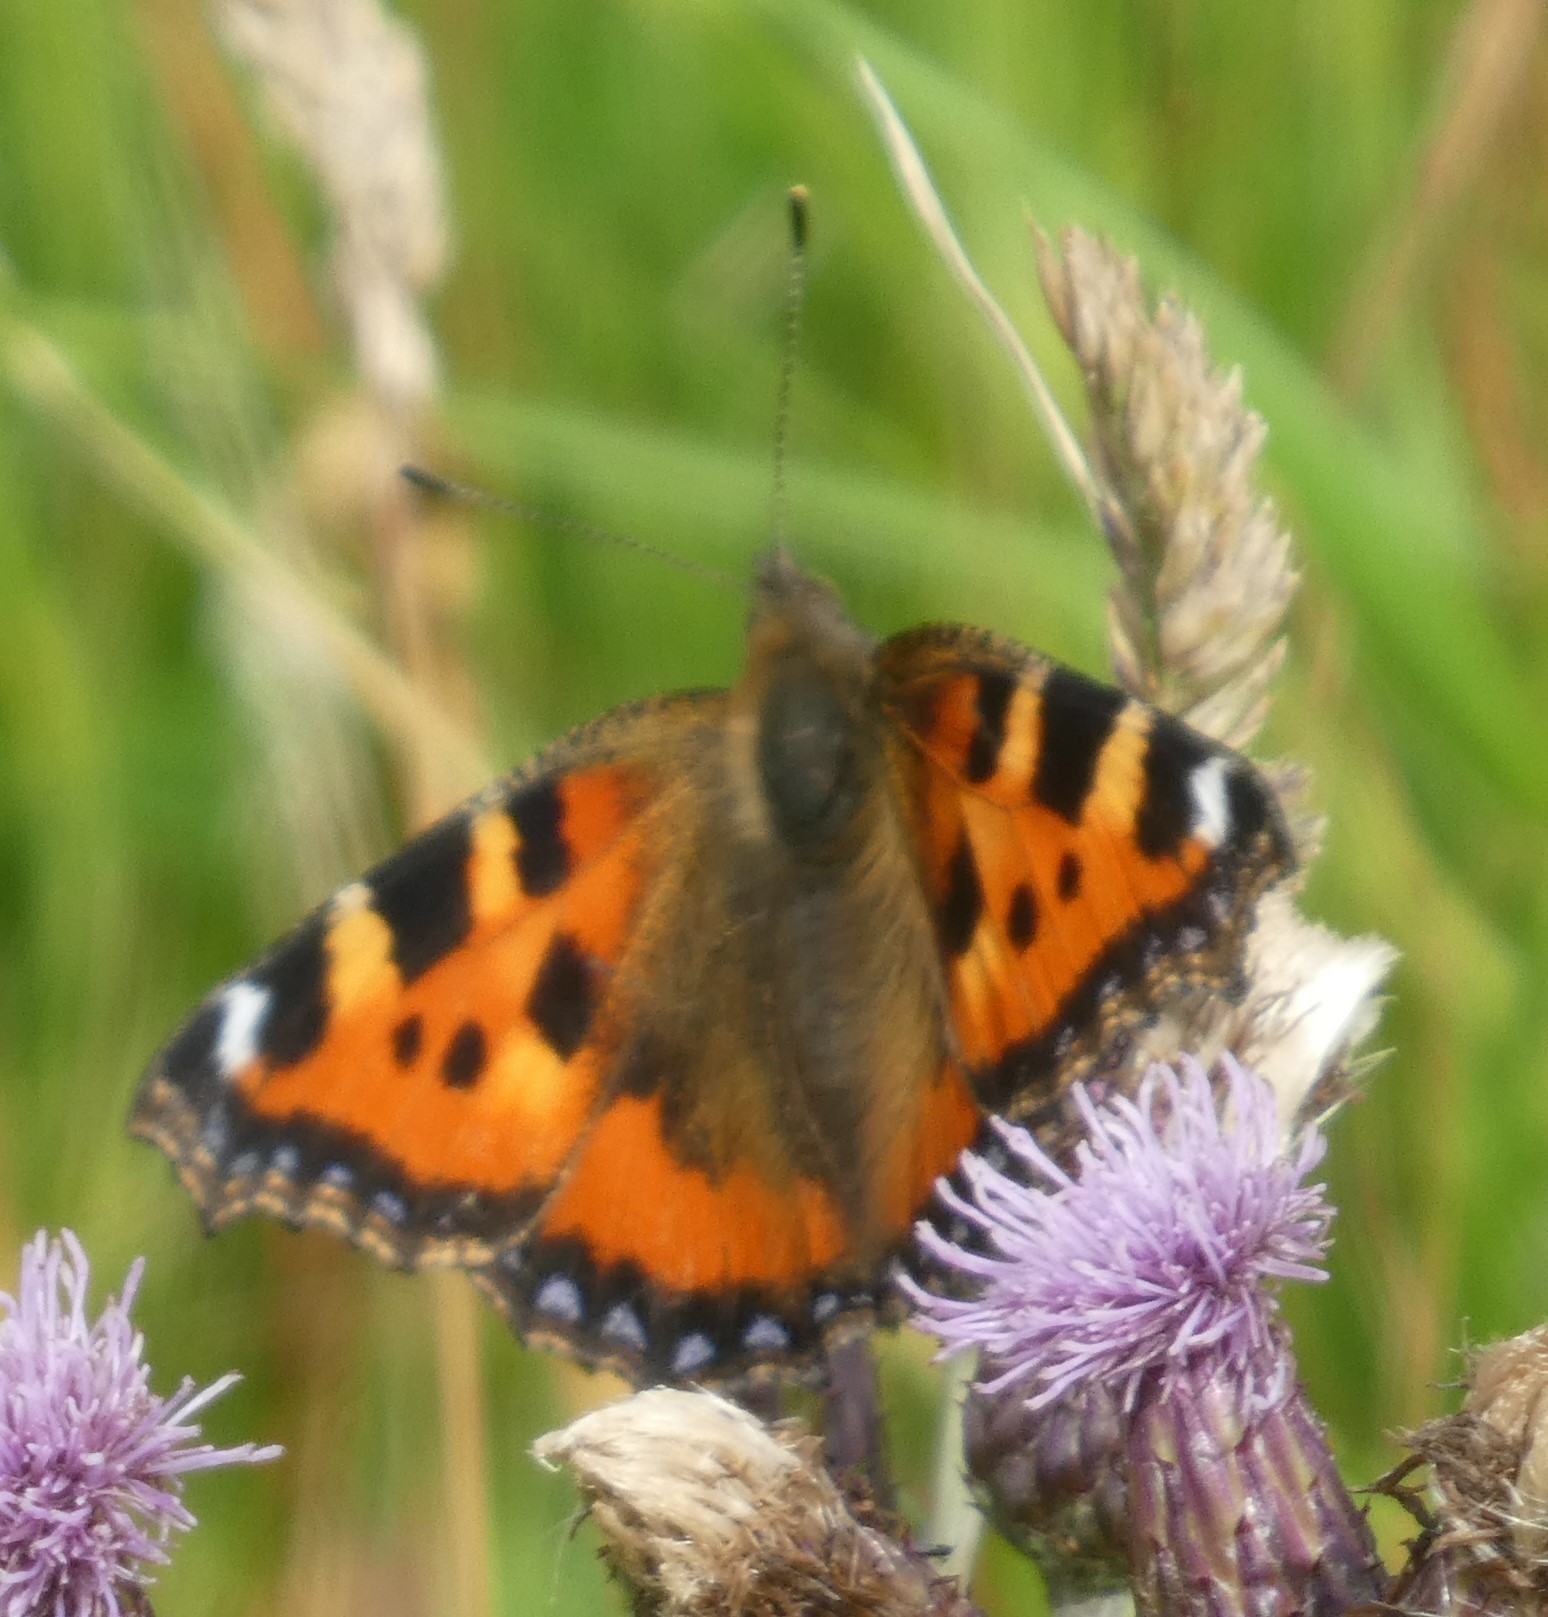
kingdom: Animalia
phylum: Arthropoda
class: Insecta
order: Lepidoptera
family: Nymphalidae
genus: Aglais
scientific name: Aglais urticae
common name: Small tortoiseshell
